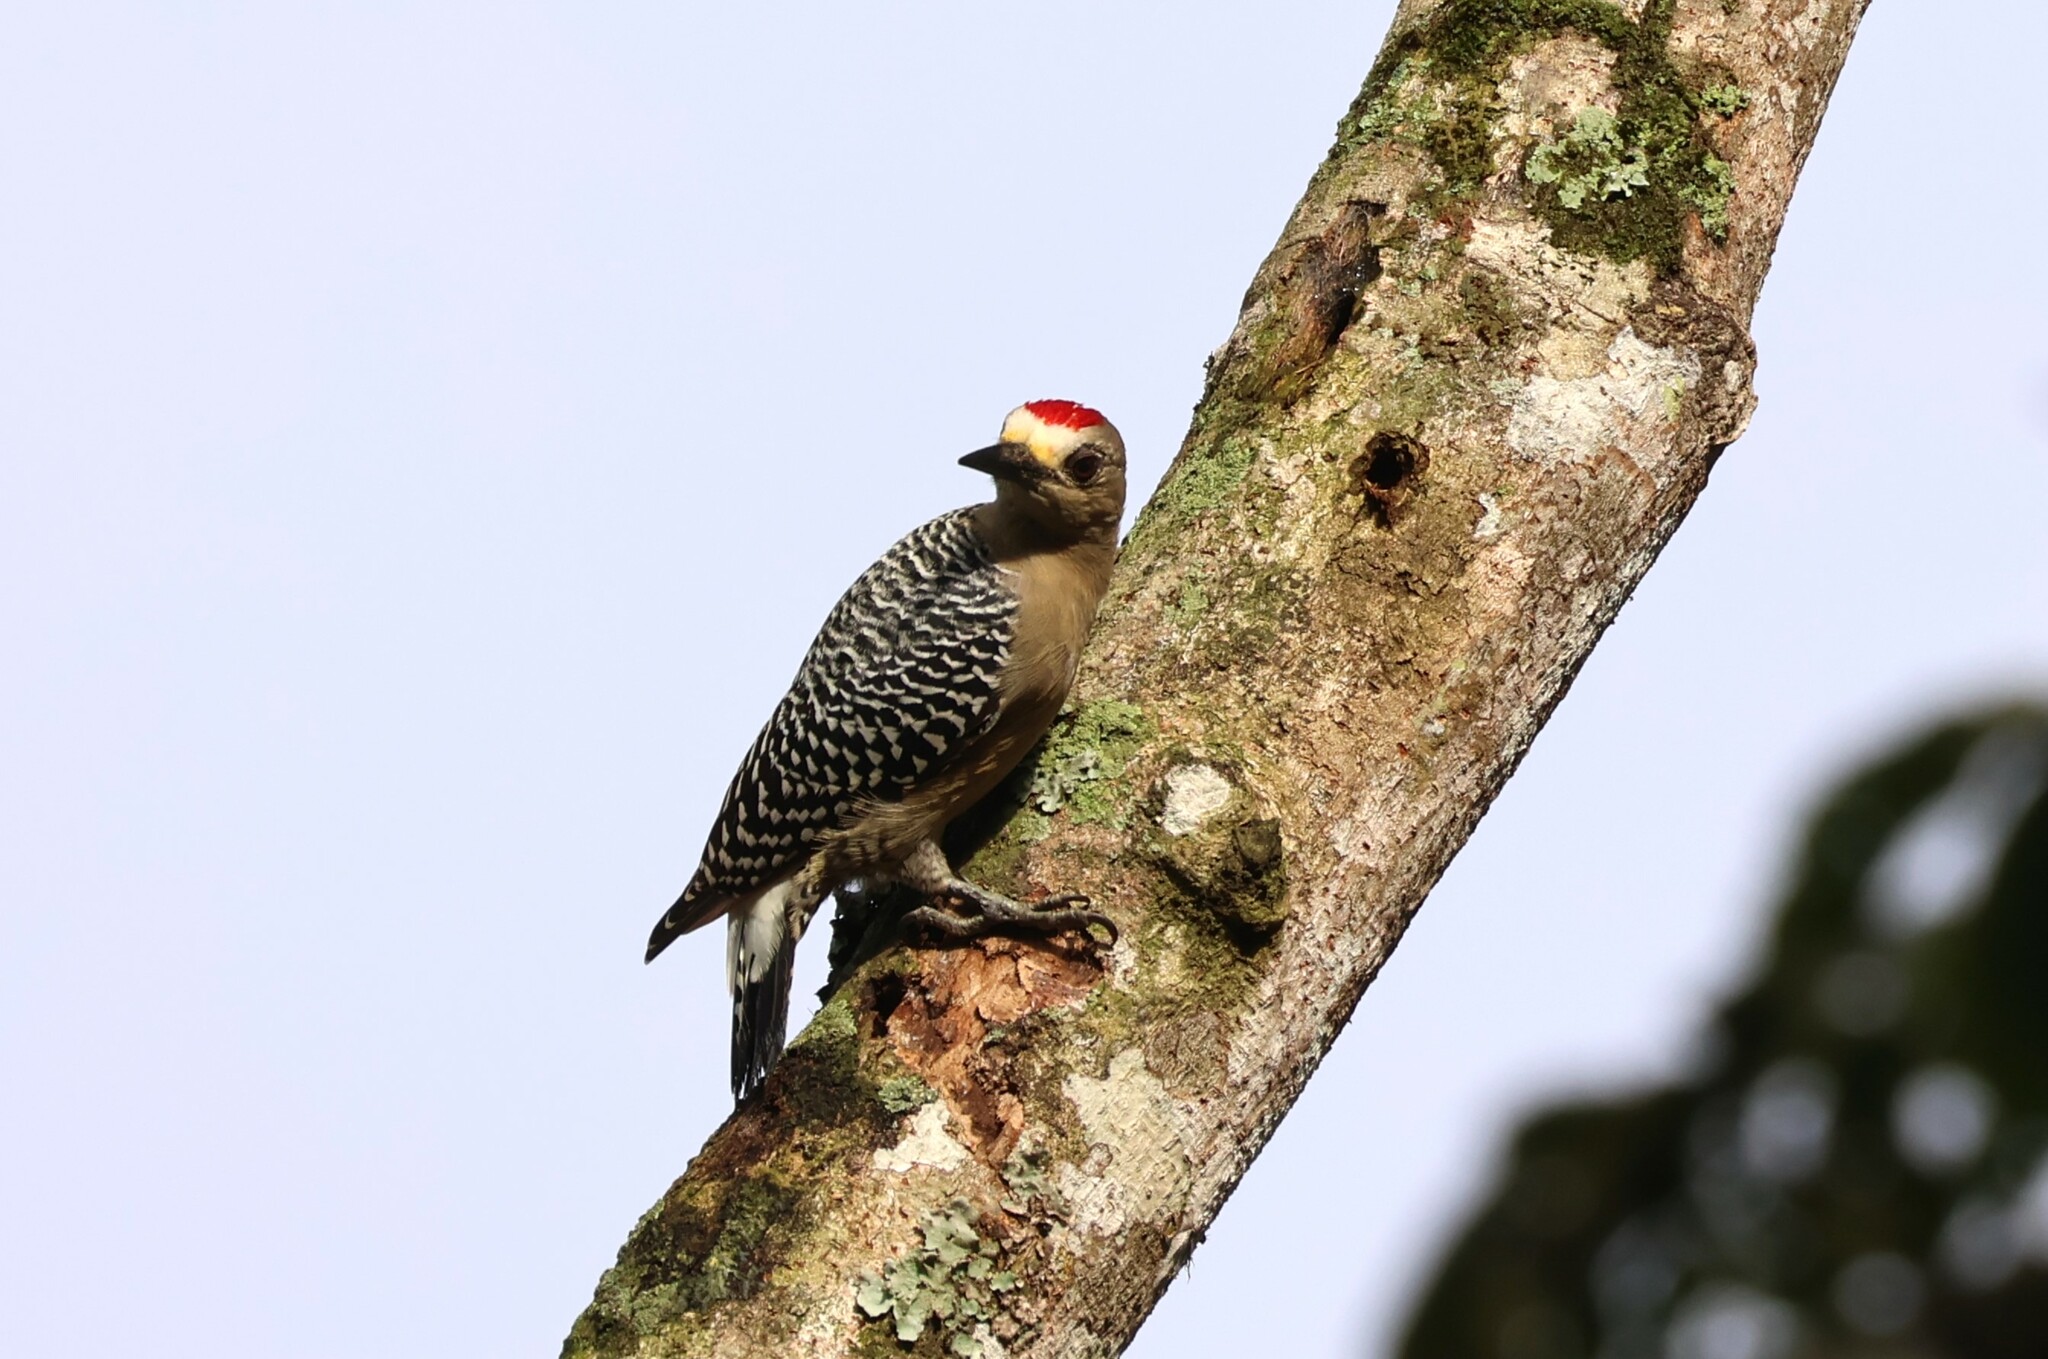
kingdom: Animalia
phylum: Chordata
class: Aves
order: Piciformes
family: Picidae
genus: Melanerpes
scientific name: Melanerpes hoffmannii
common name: Hoffmann's woodpecker
